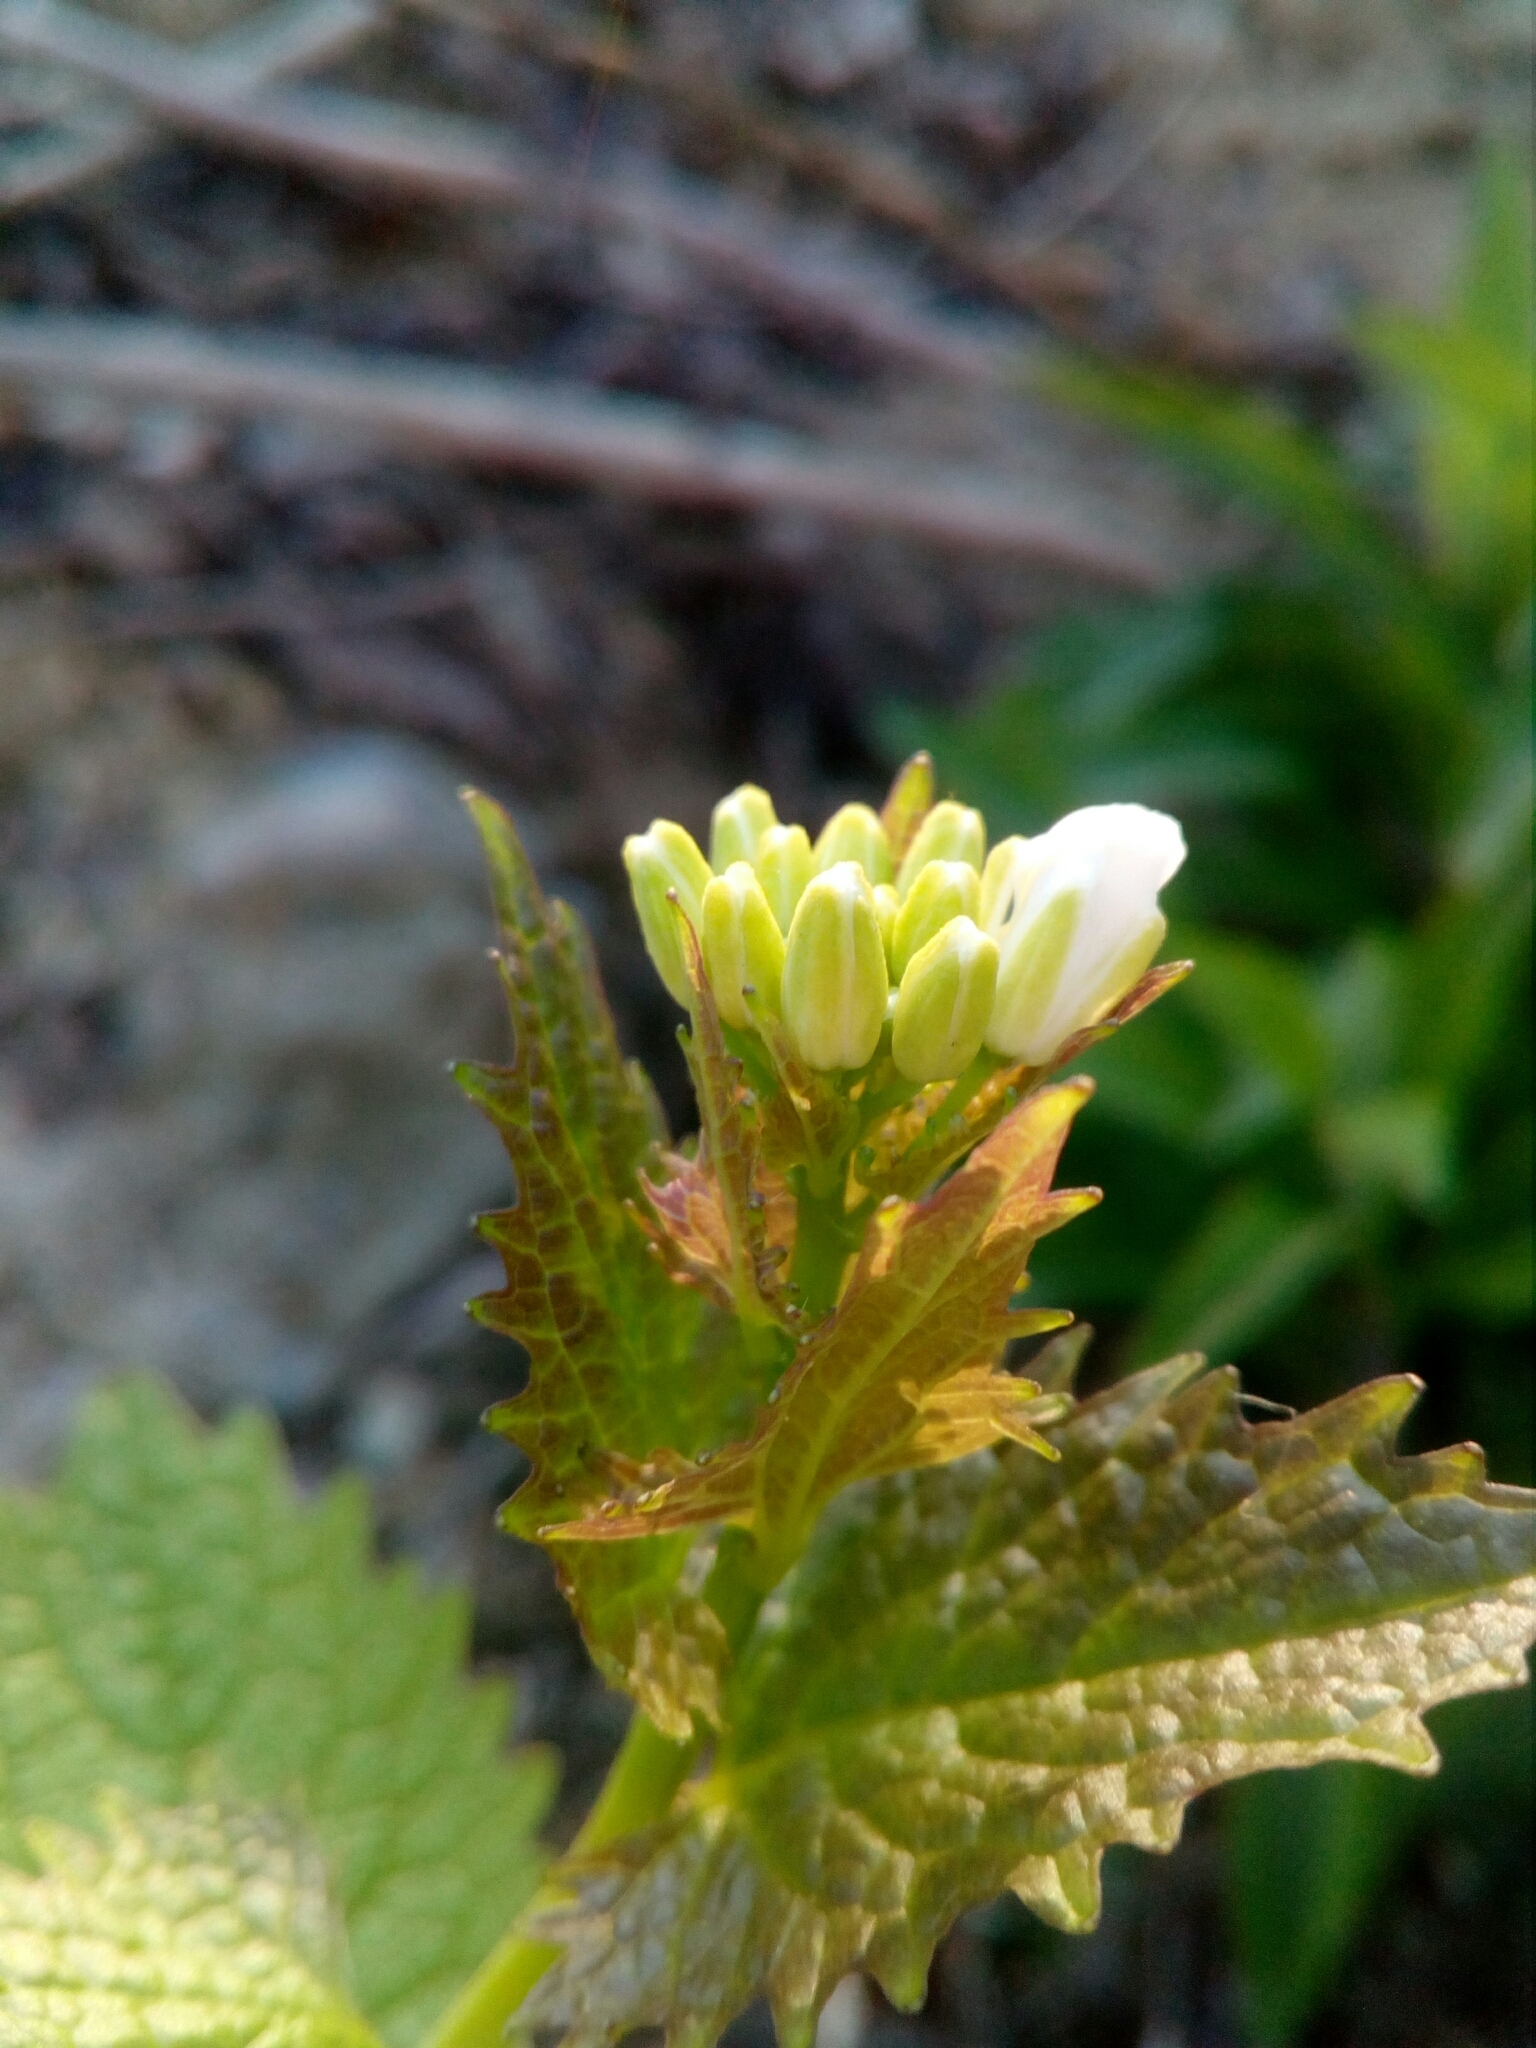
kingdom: Plantae
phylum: Tracheophyta
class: Magnoliopsida
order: Brassicales
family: Brassicaceae
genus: Alliaria
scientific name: Alliaria petiolata
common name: Garlic mustard
